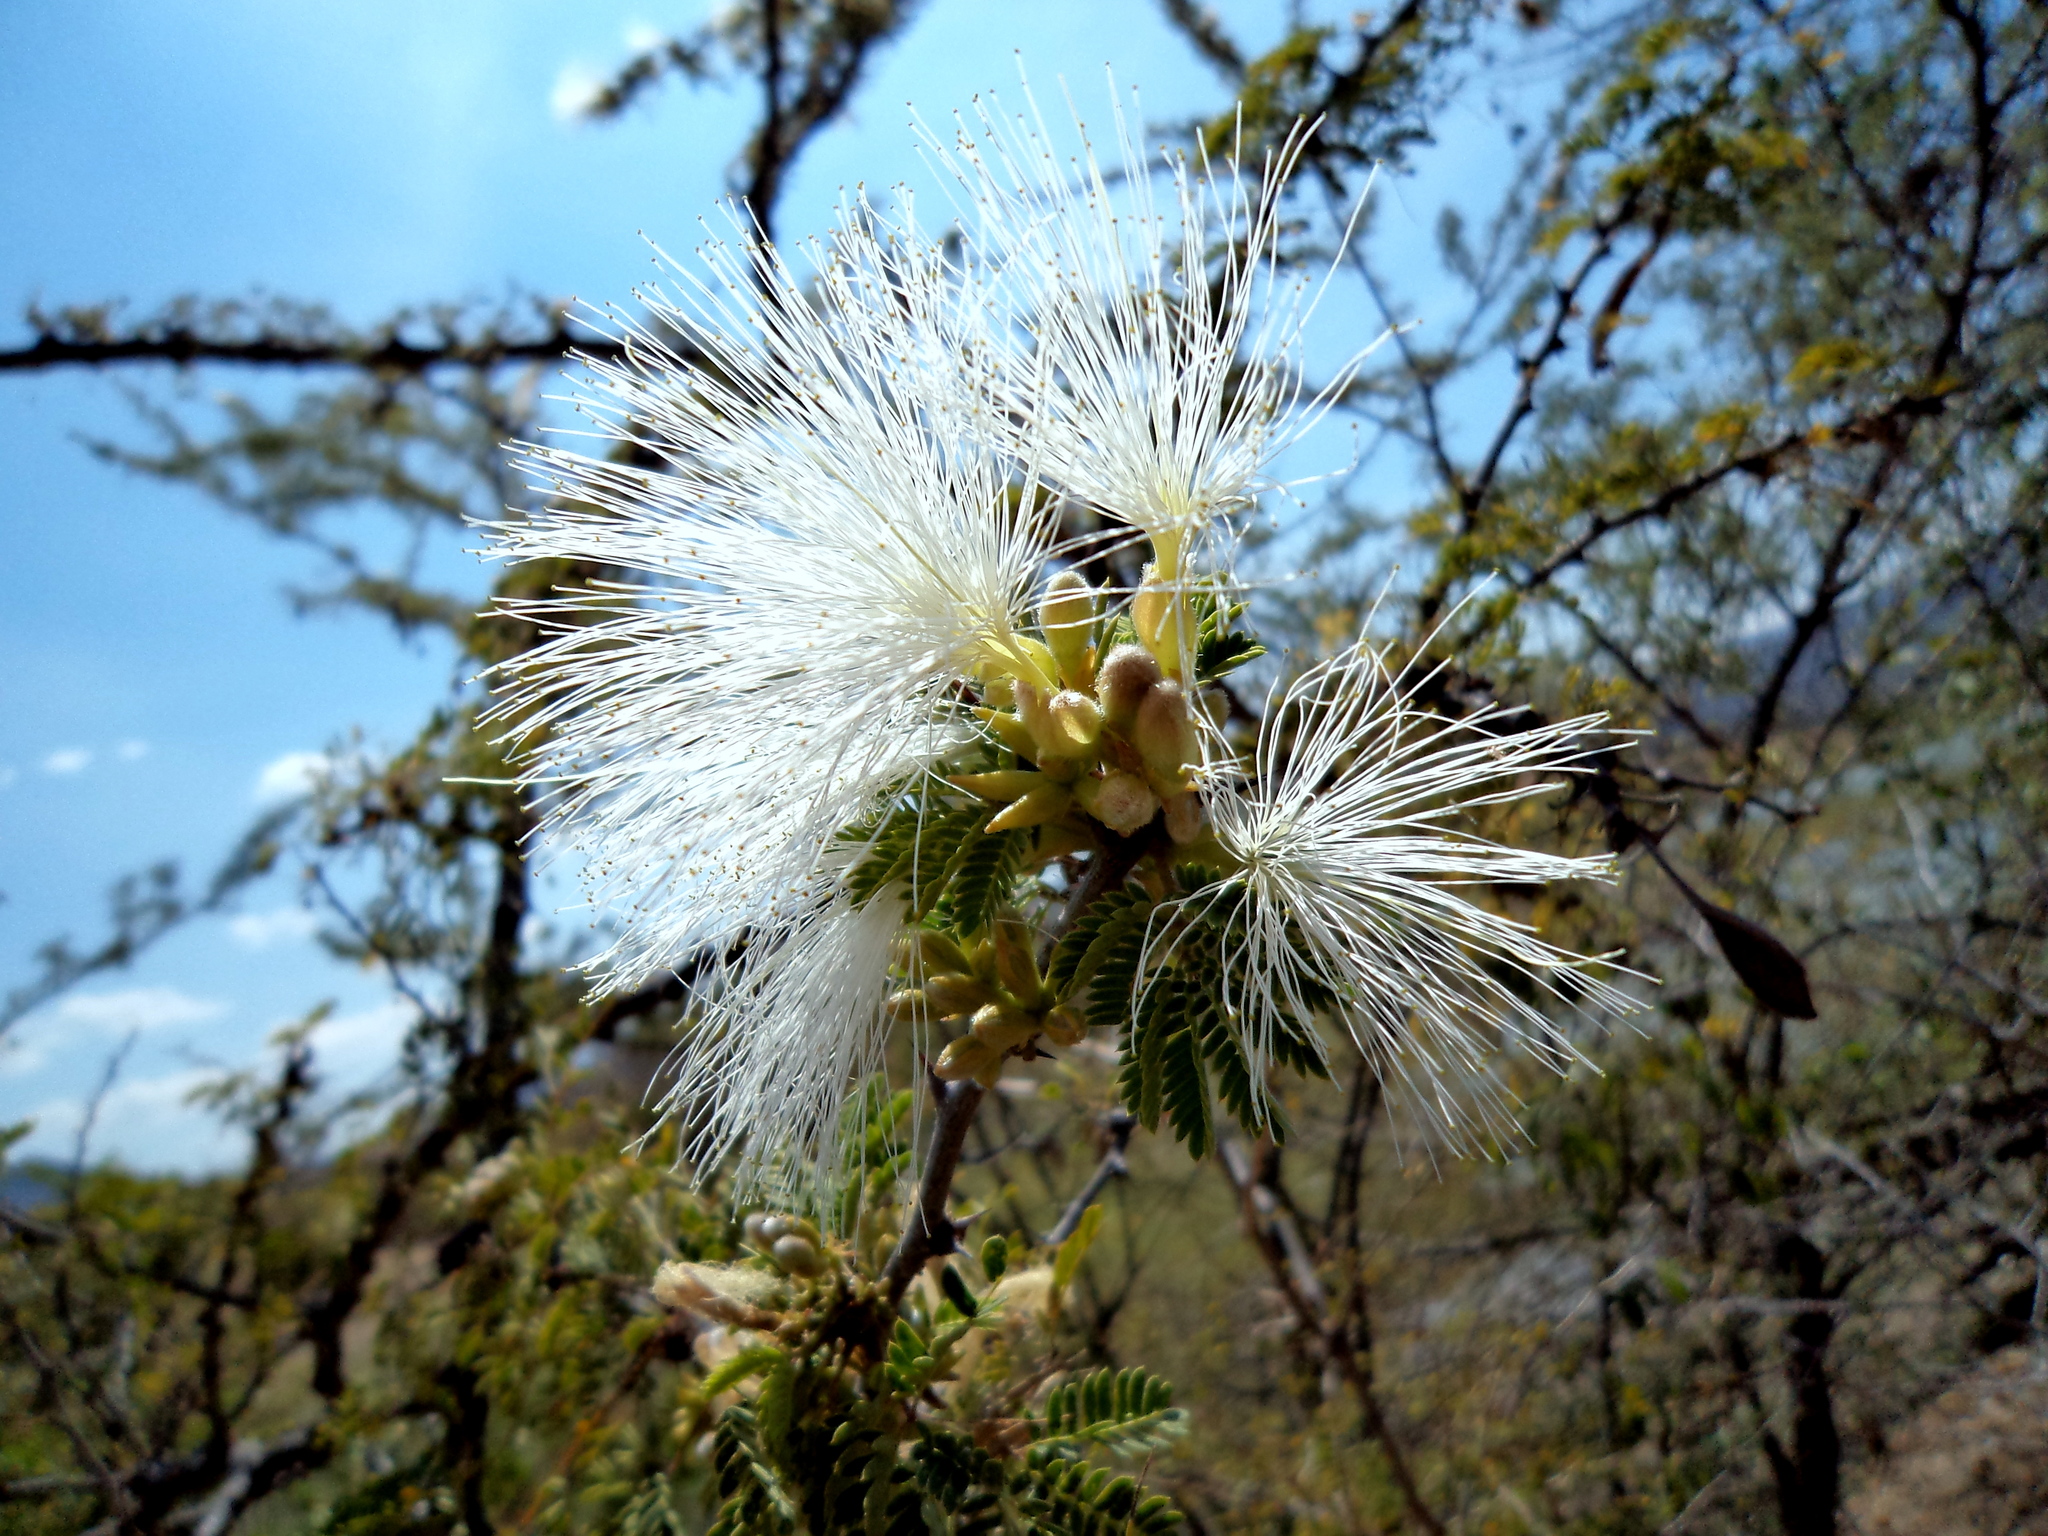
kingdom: Plantae
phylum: Tracheophyta
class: Magnoliopsida
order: Fabales
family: Fabaceae
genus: Havardia
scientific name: Havardia acatlensis
